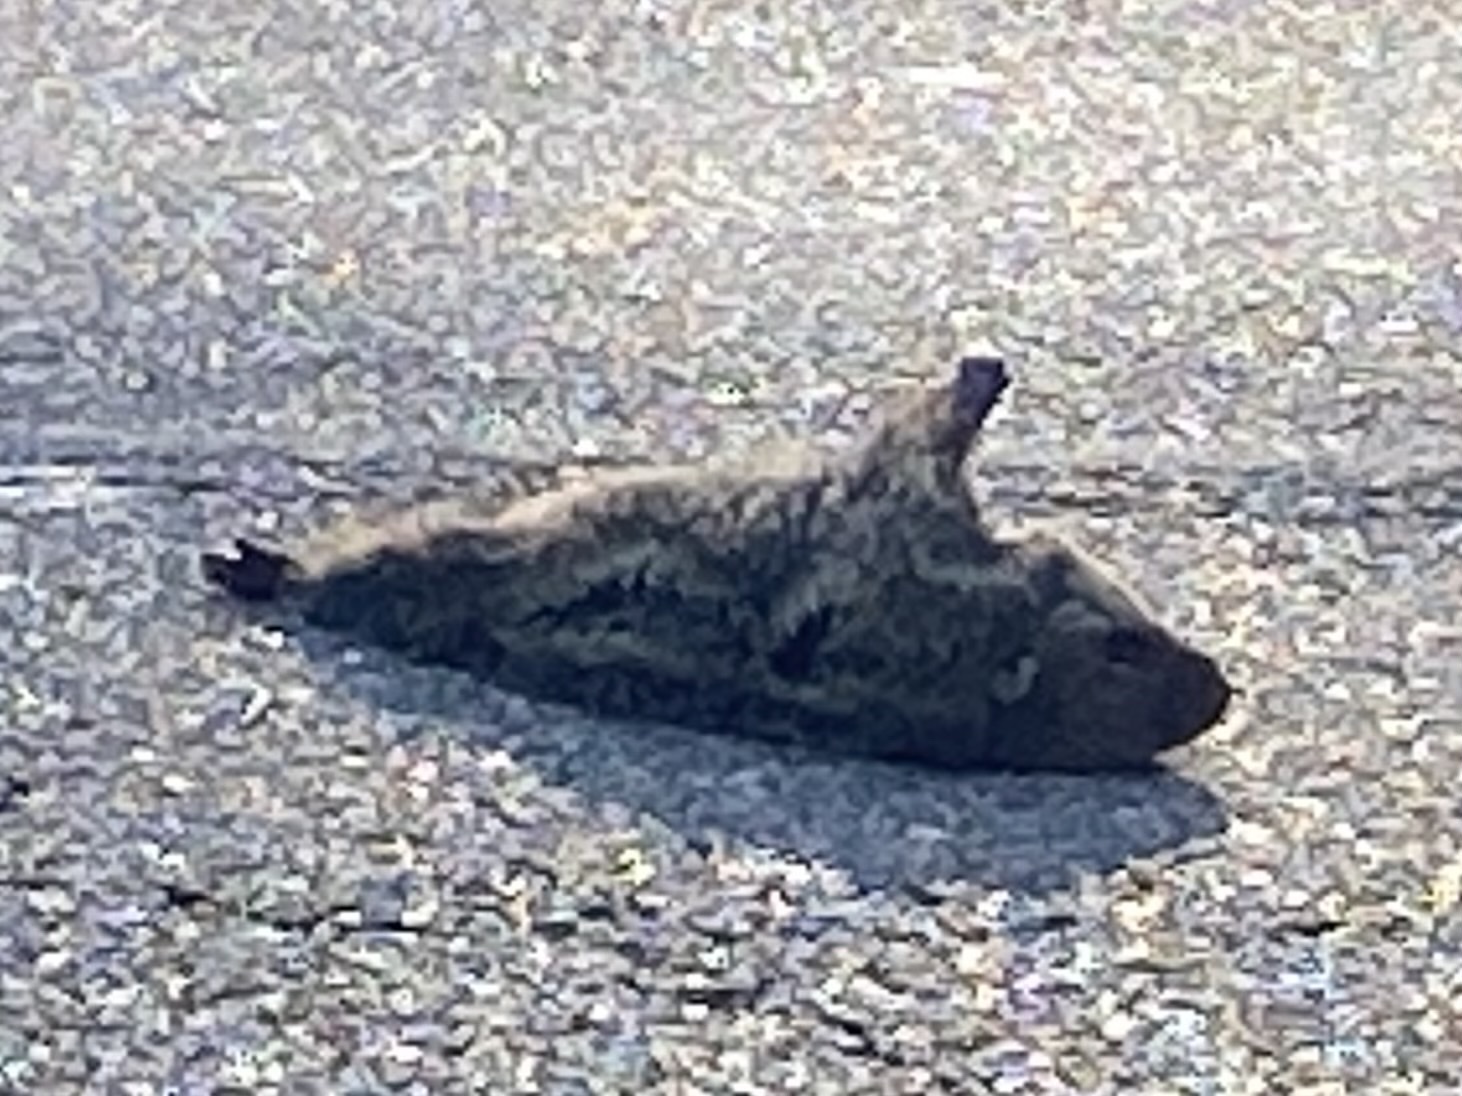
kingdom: Animalia
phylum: Chordata
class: Mammalia
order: Rodentia
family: Sciuridae
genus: Marmota
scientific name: Marmota monax
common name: Groundhog
